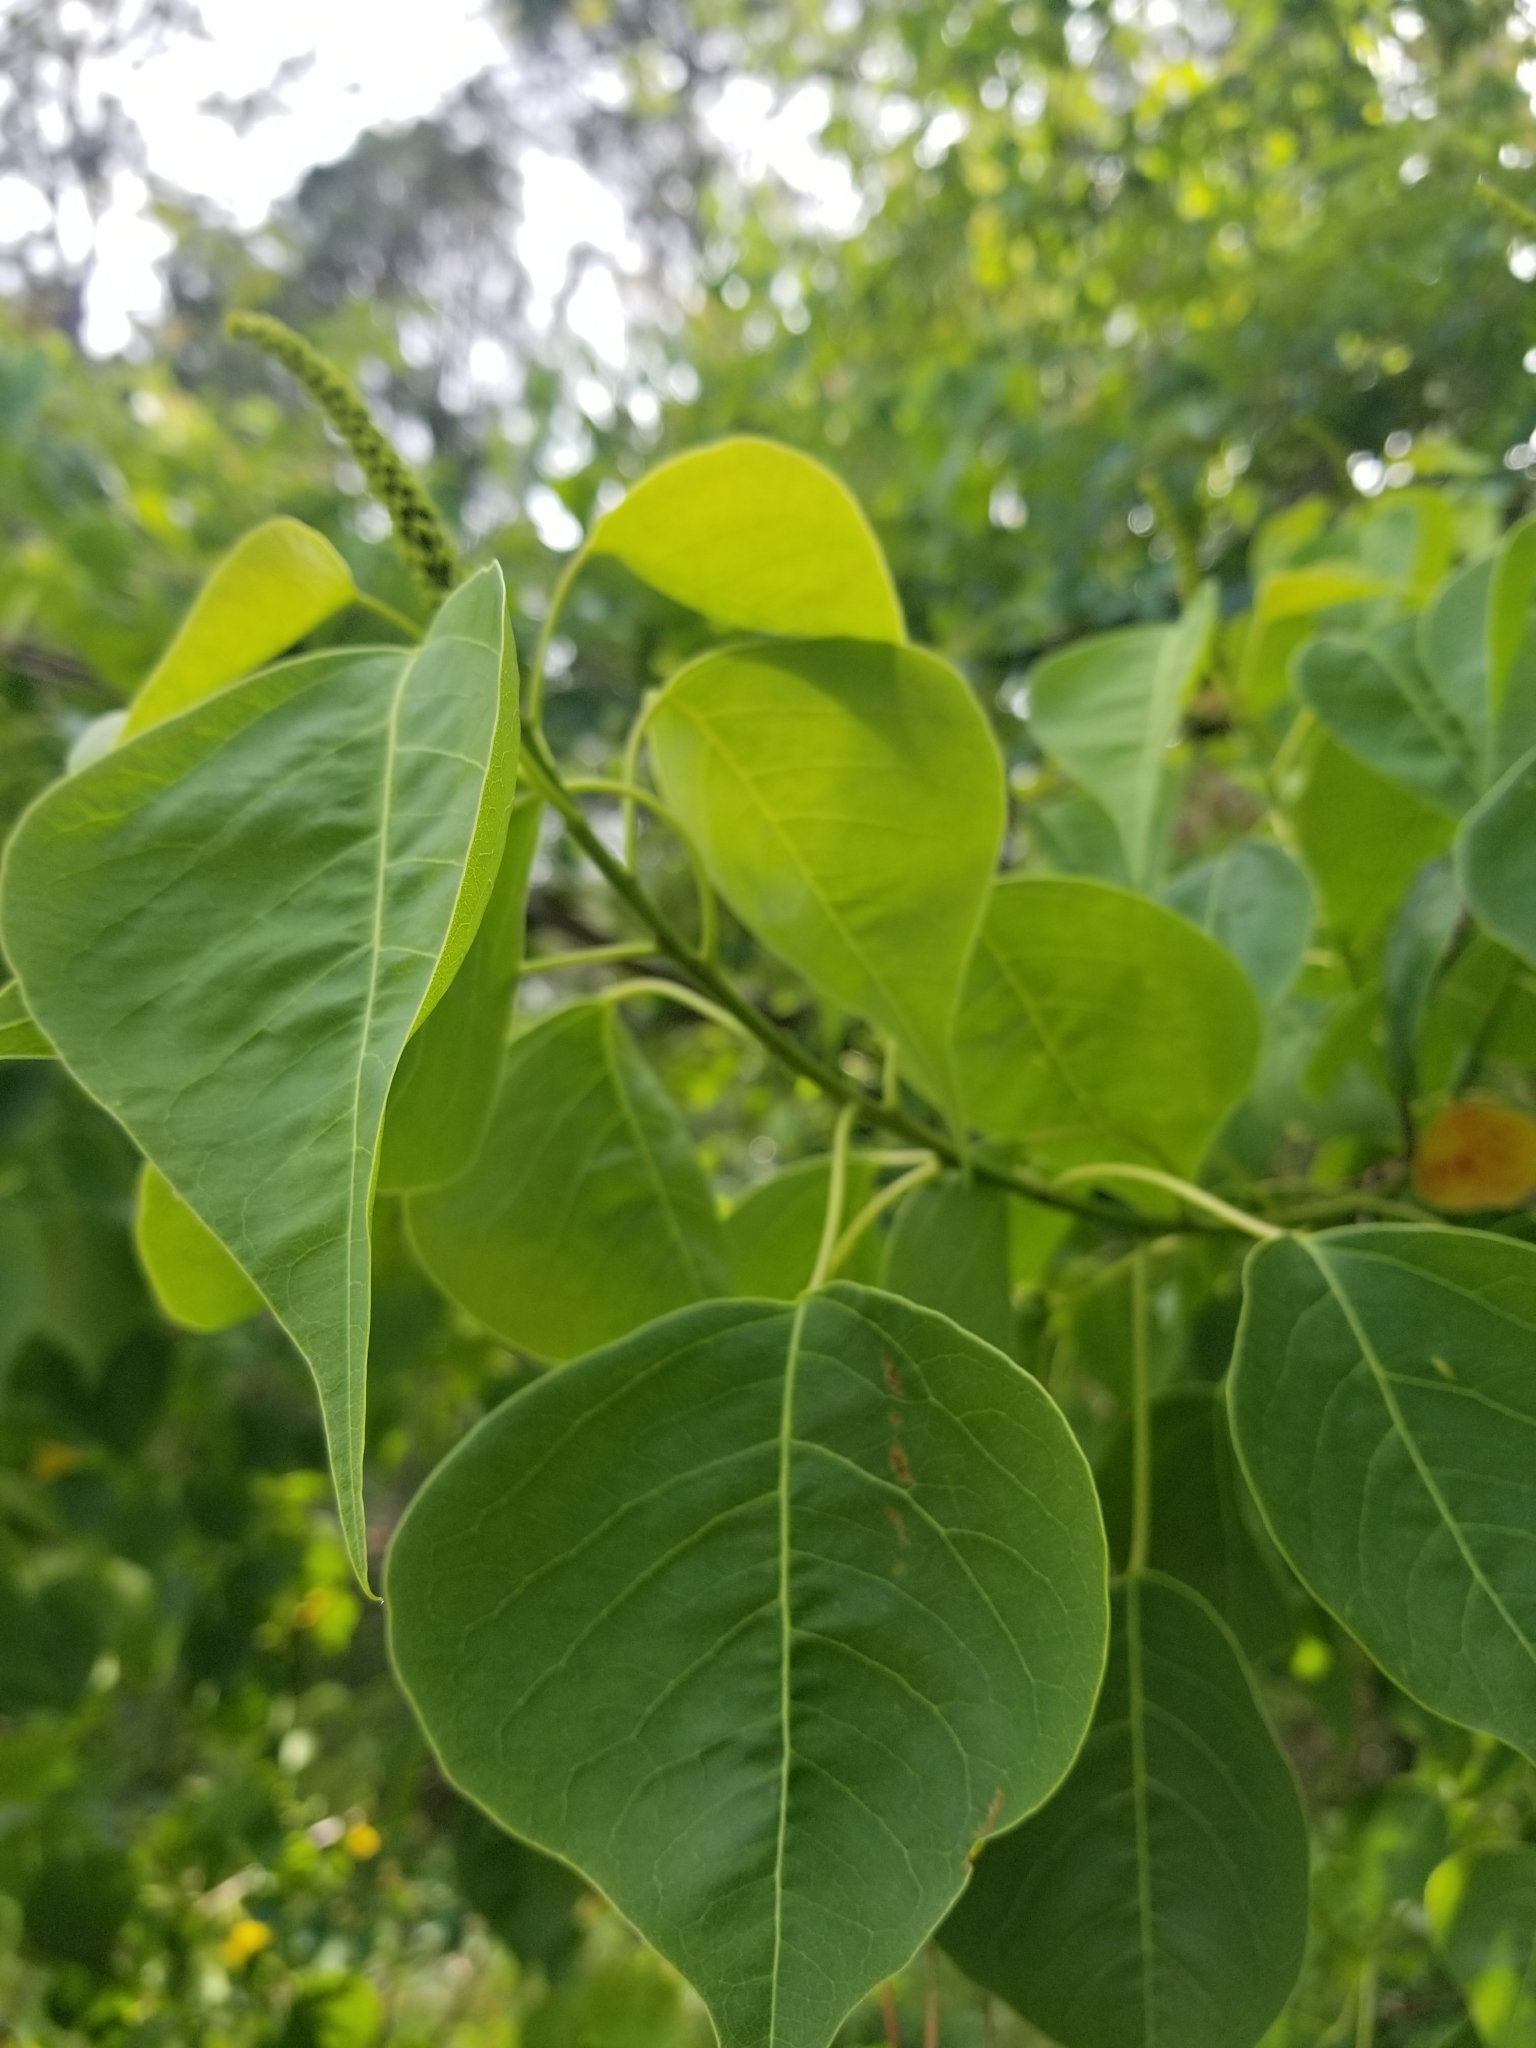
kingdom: Plantae
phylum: Tracheophyta
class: Magnoliopsida
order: Malpighiales
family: Euphorbiaceae
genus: Triadica
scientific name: Triadica sebifera
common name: Chinese tallow
